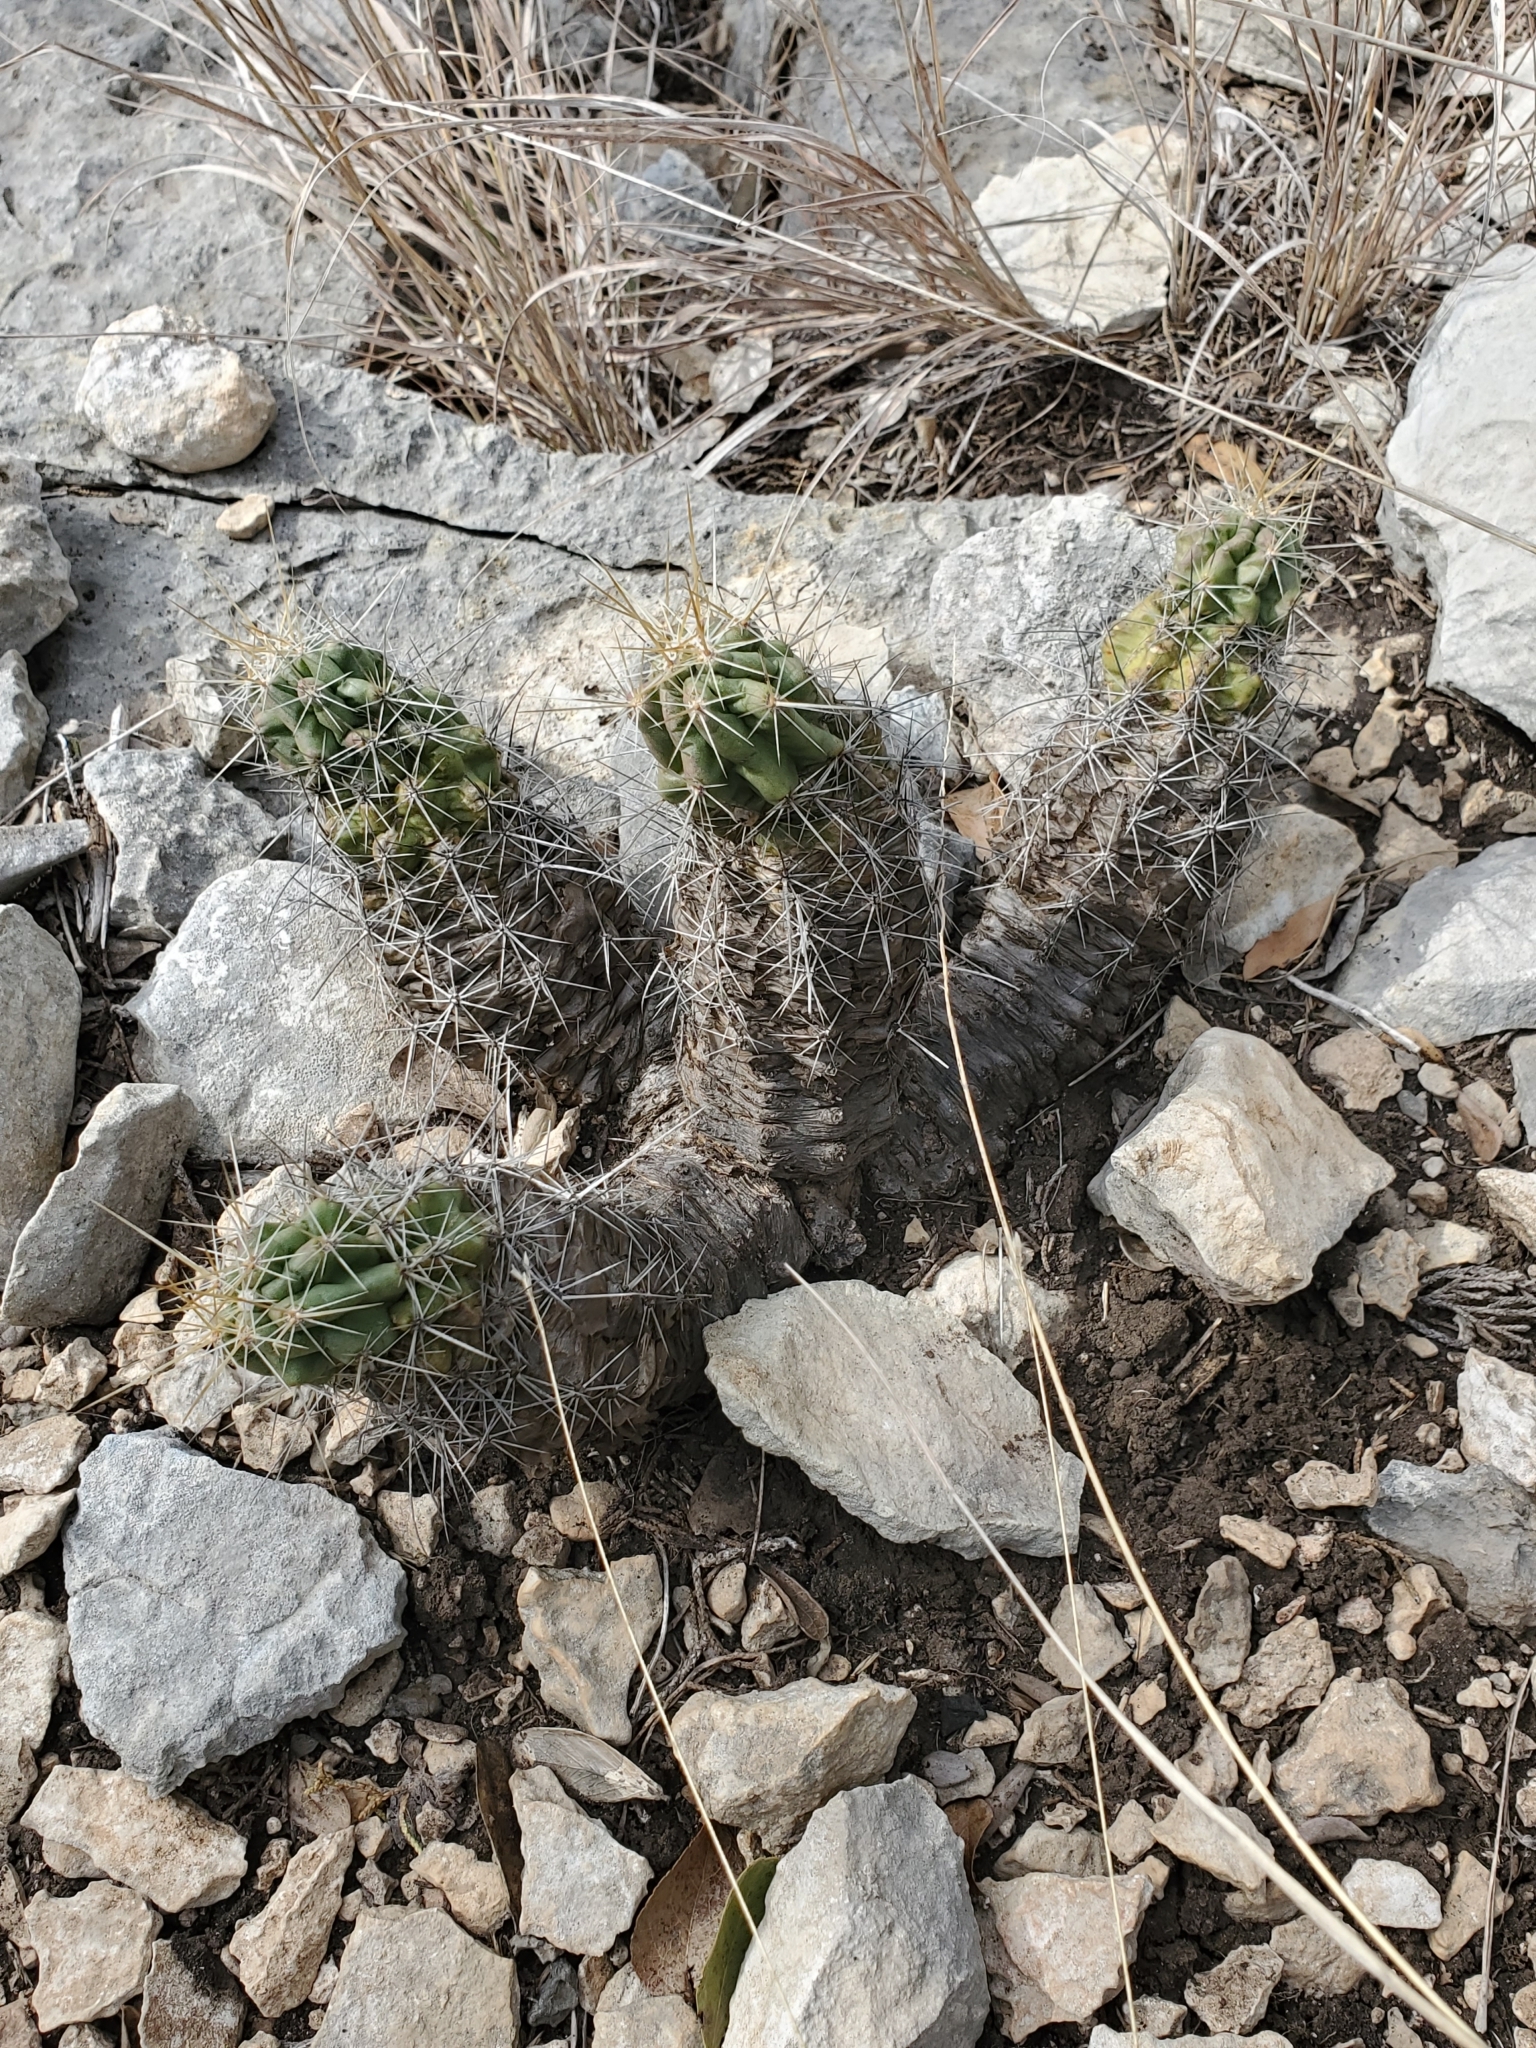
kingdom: Plantae
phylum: Tracheophyta
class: Magnoliopsida
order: Caryophyllales
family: Cactaceae
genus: Echinocereus
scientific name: Echinocereus enneacanthus
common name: Pitaya
